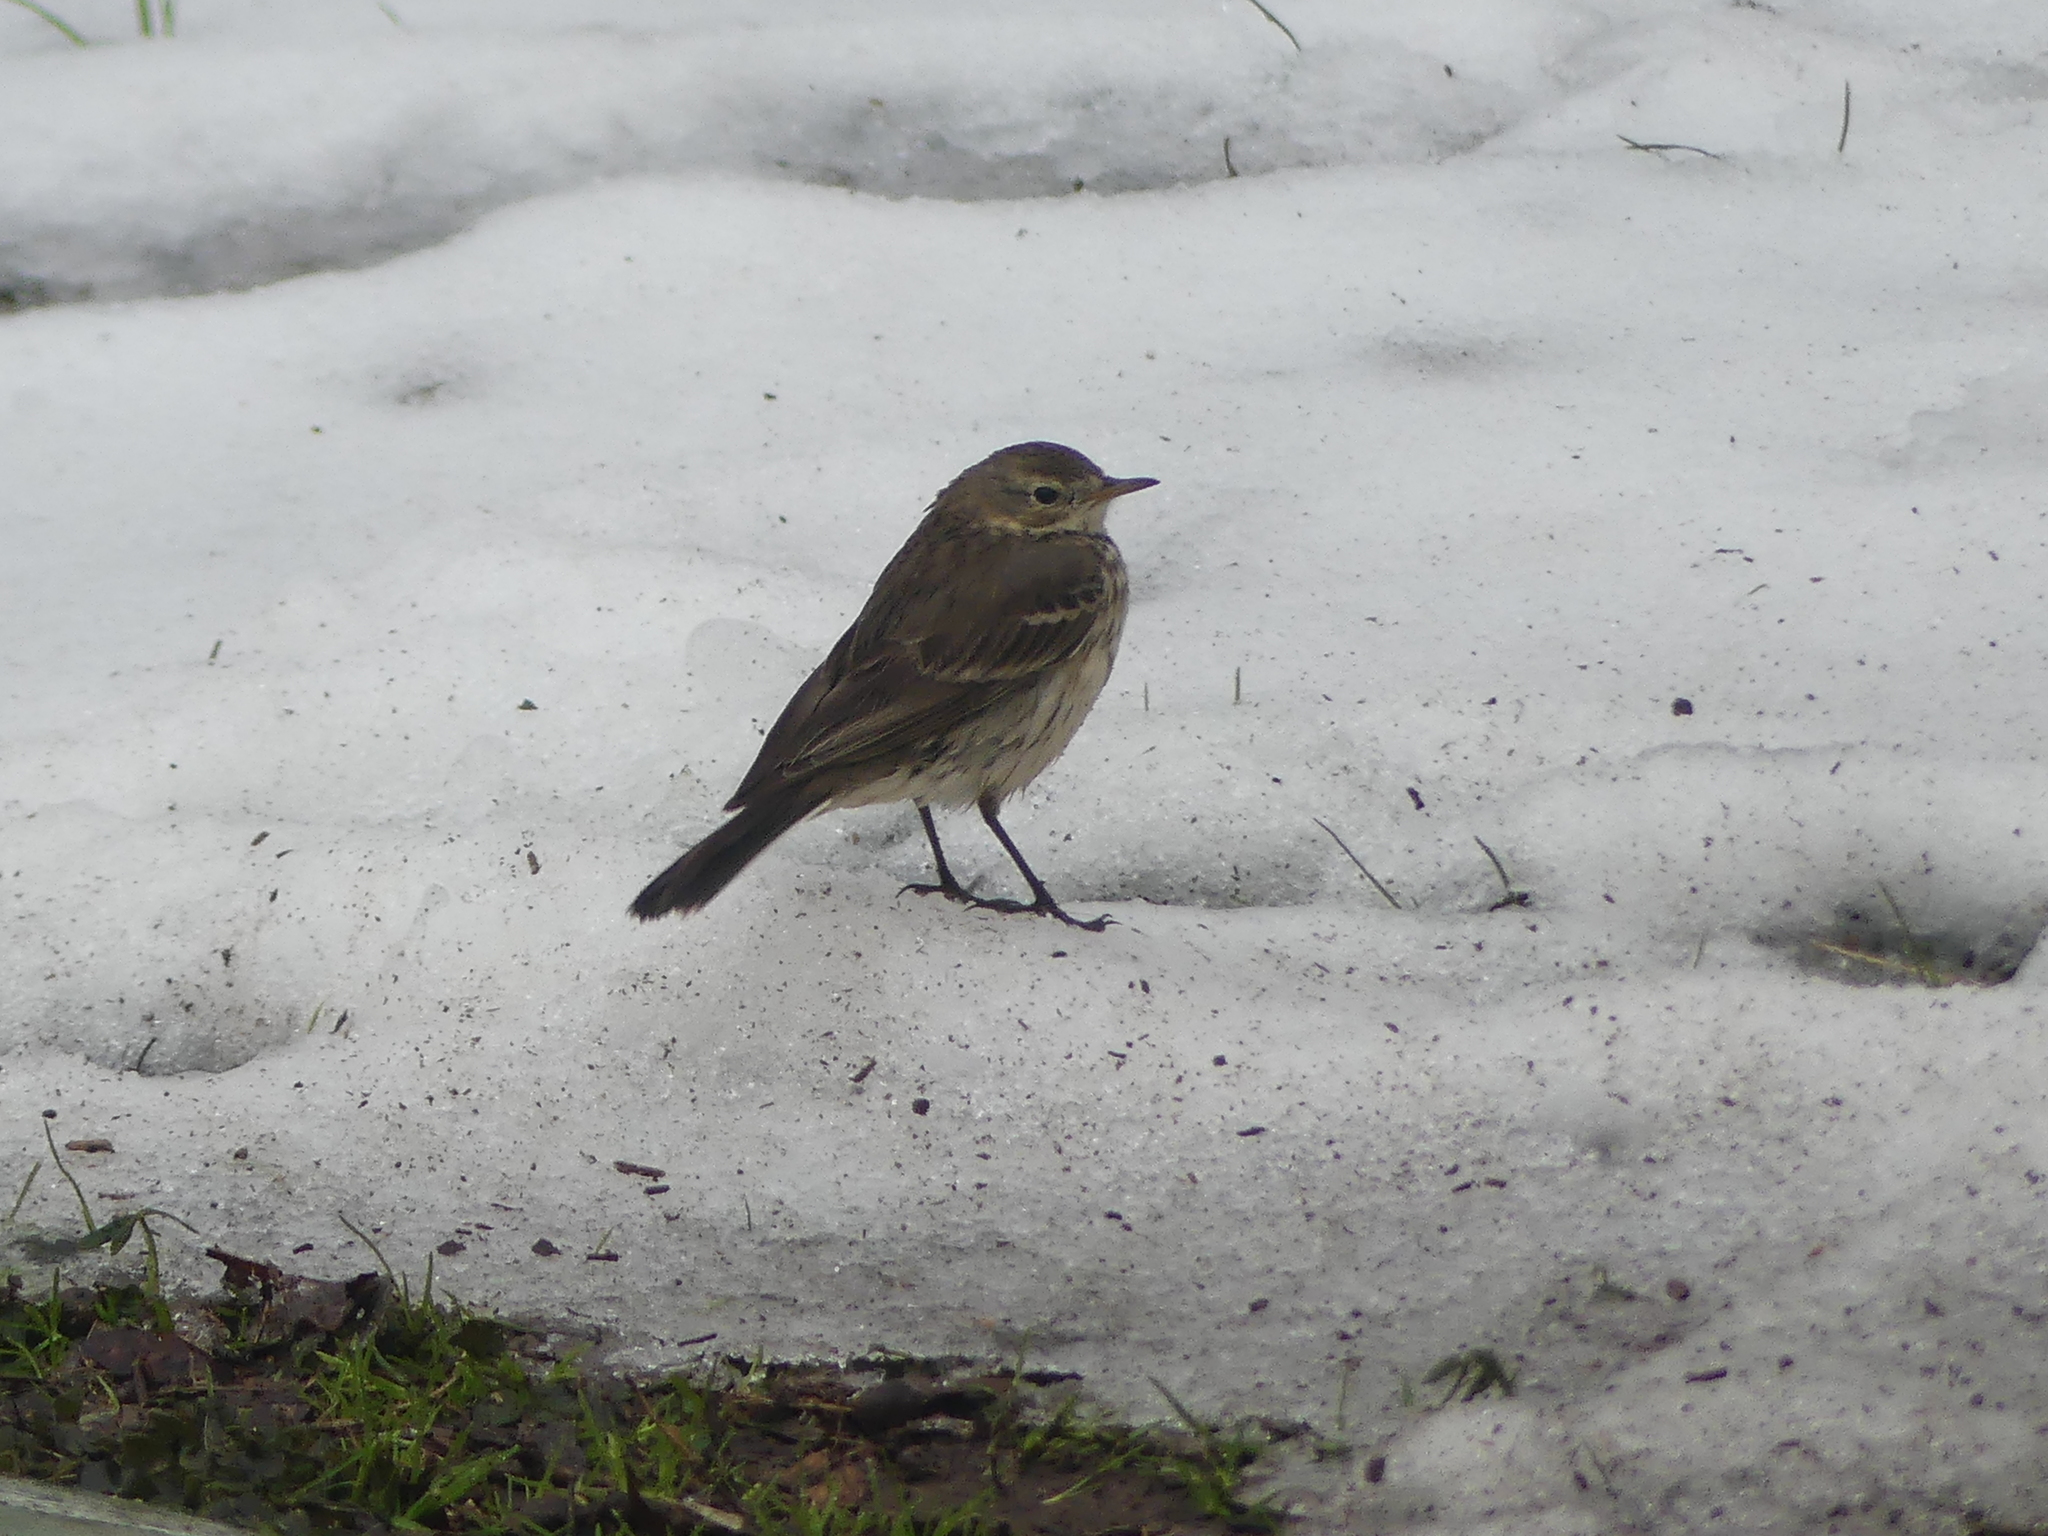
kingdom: Animalia
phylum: Chordata
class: Aves
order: Passeriformes
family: Motacillidae
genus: Anthus
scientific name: Anthus rubescens
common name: Buff-bellied pipit
